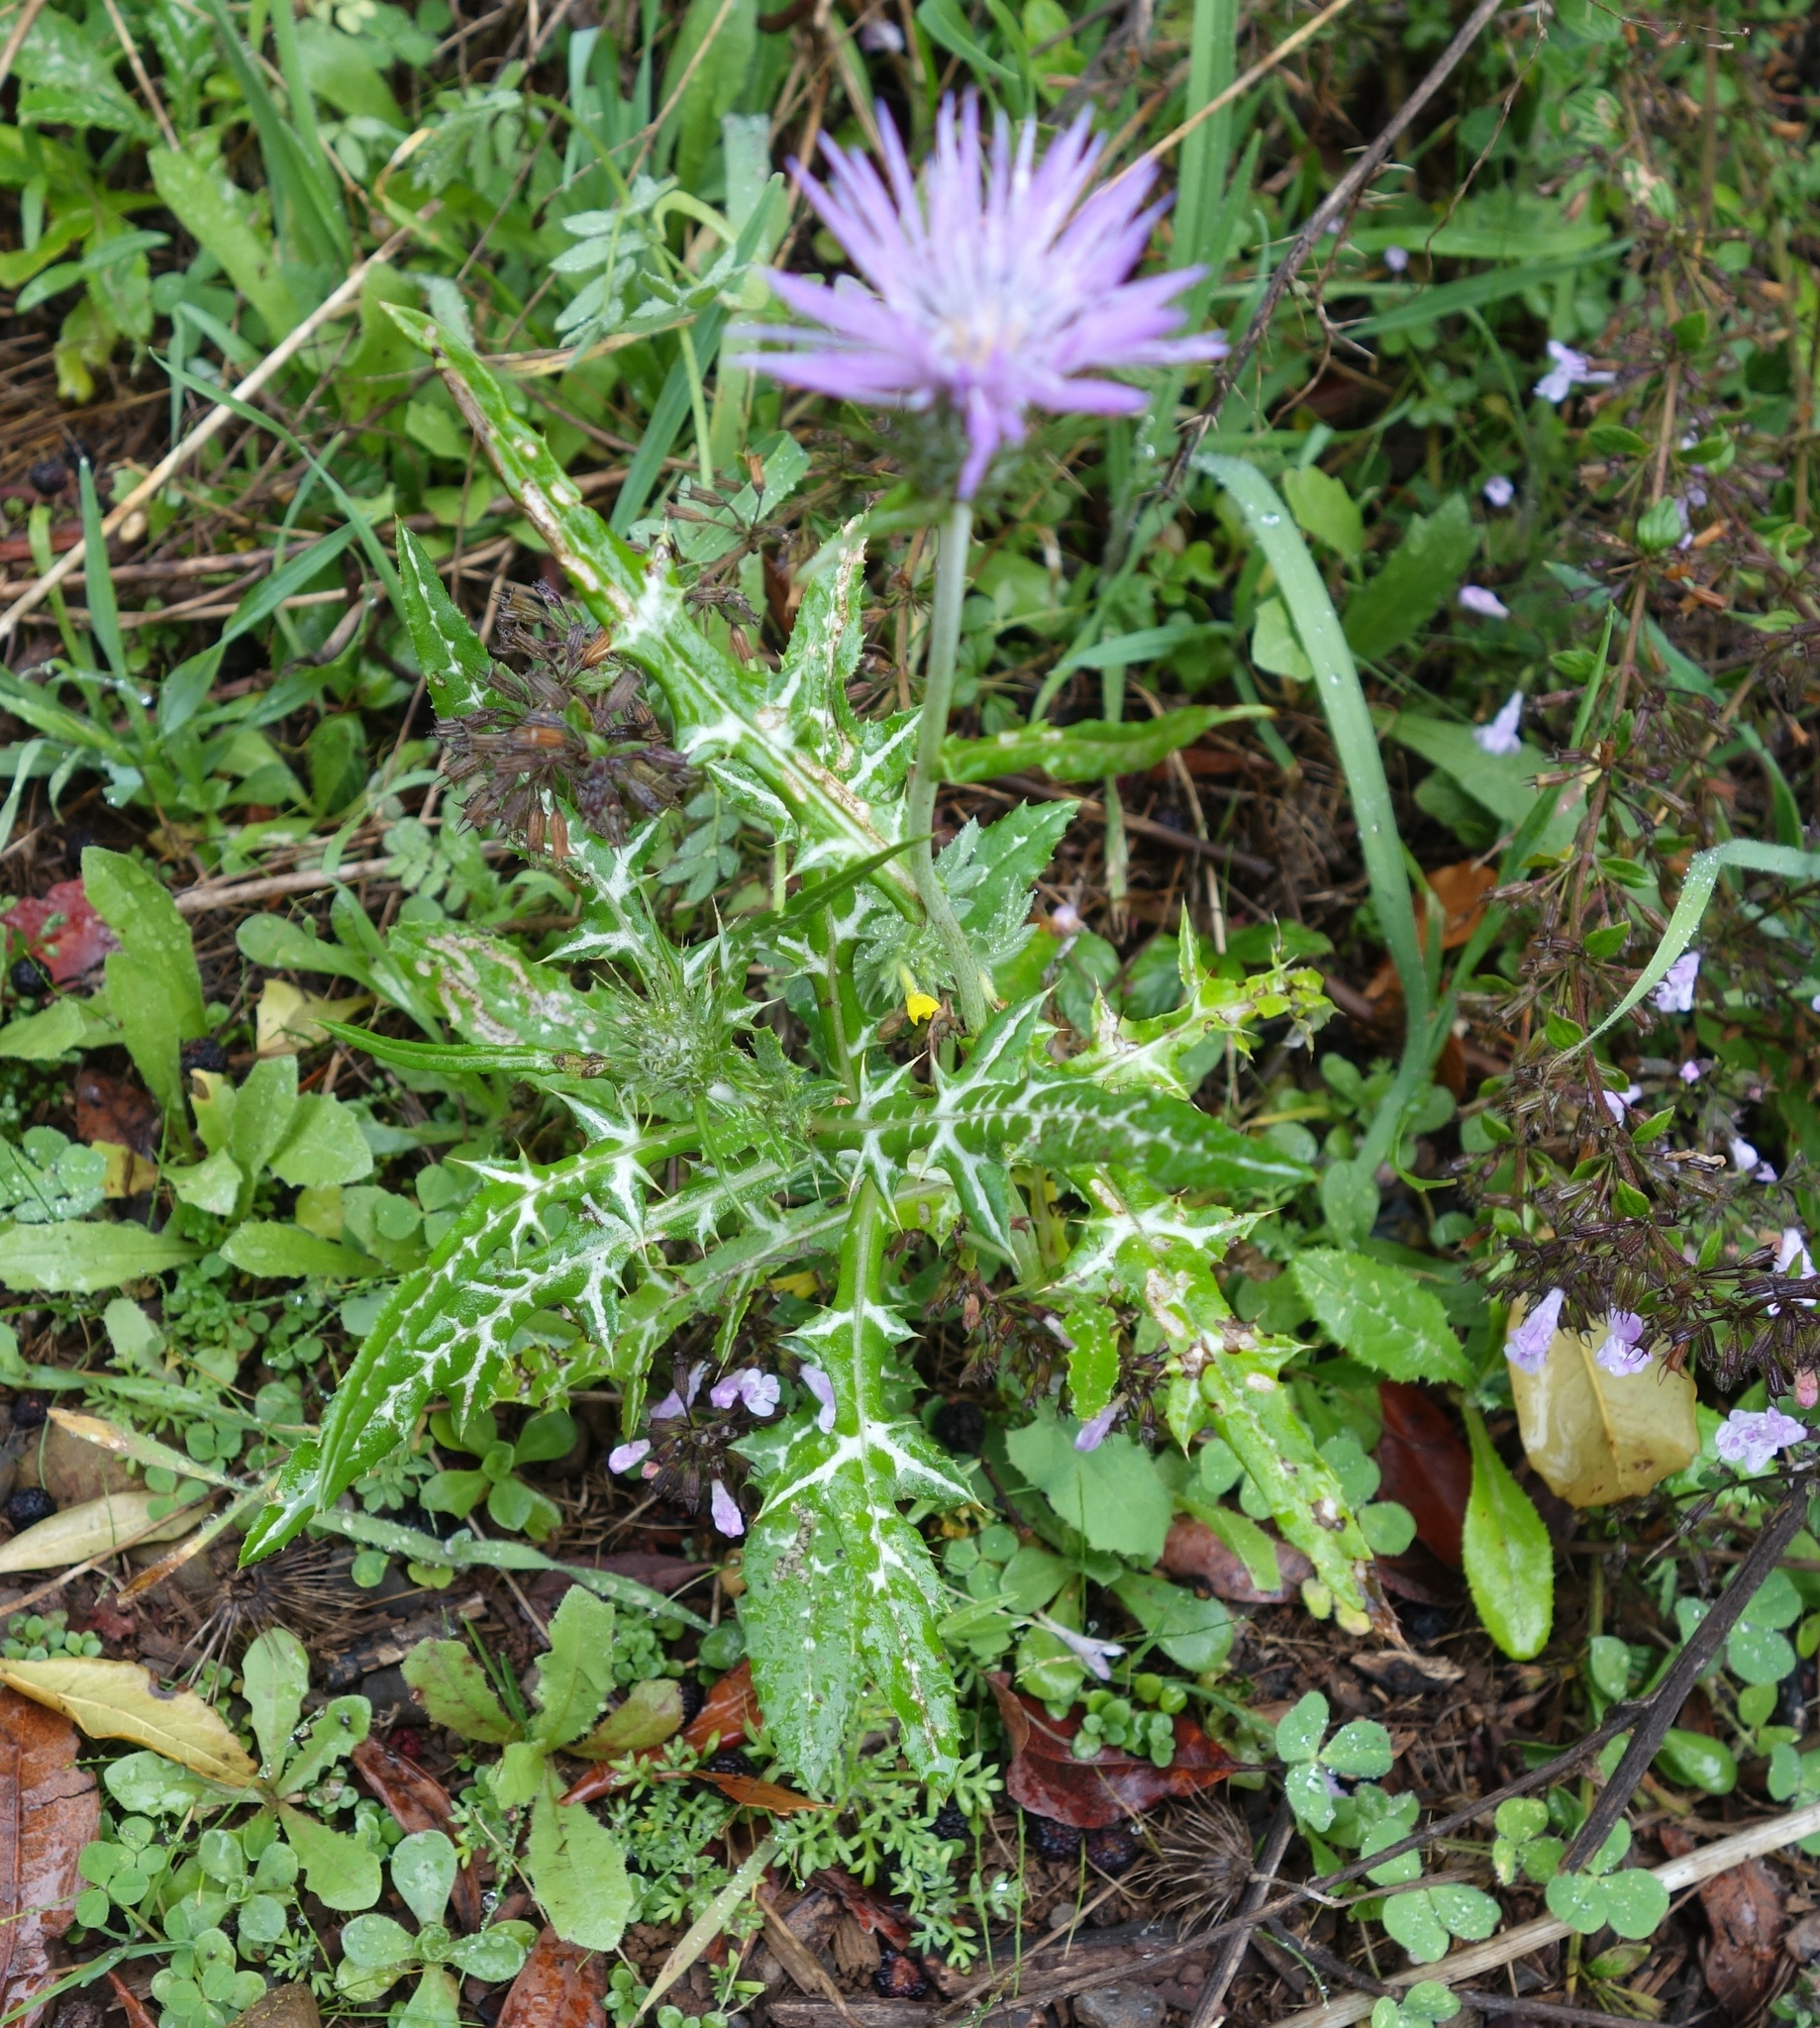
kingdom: Plantae
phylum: Tracheophyta
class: Magnoliopsida
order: Asterales
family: Asteraceae
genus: Galactites
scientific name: Galactites tomentosa
